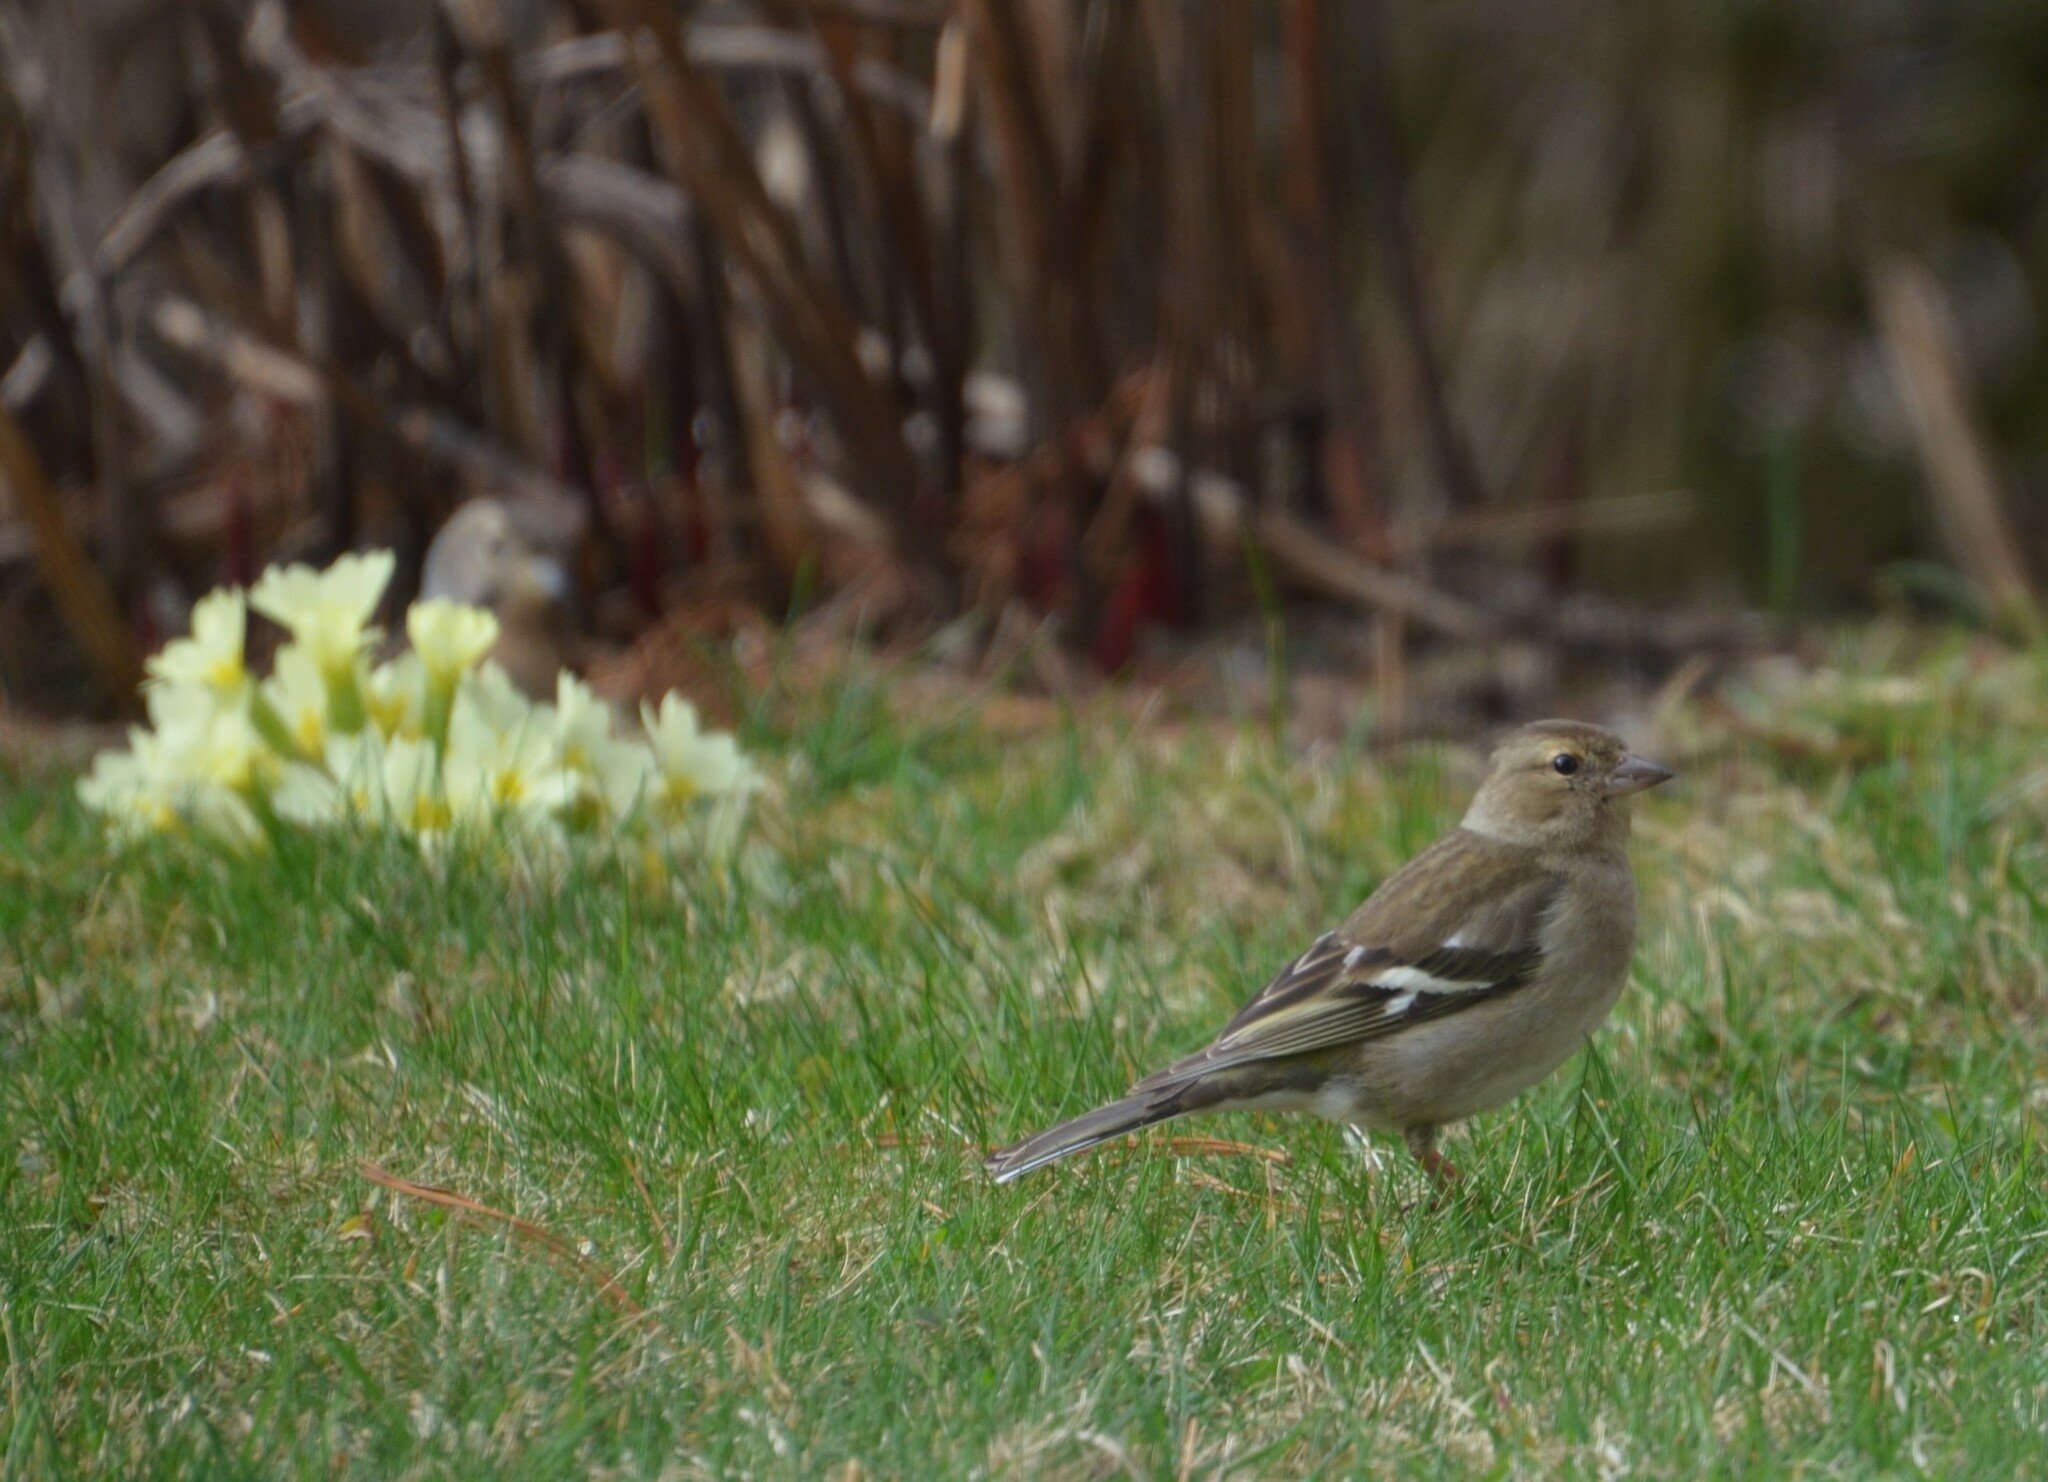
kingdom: Animalia
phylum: Chordata
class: Aves
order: Passeriformes
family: Fringillidae
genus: Fringilla
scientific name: Fringilla coelebs
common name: Common chaffinch
